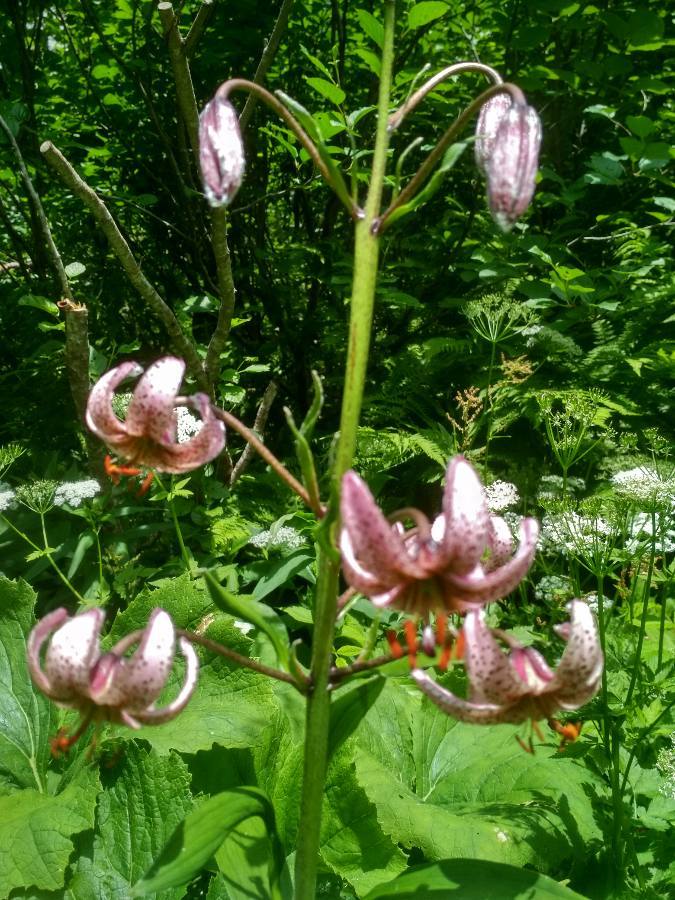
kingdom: Plantae
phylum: Tracheophyta
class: Liliopsida
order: Liliales
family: Liliaceae
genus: Lilium
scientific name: Lilium martagon
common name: Martagon lily
